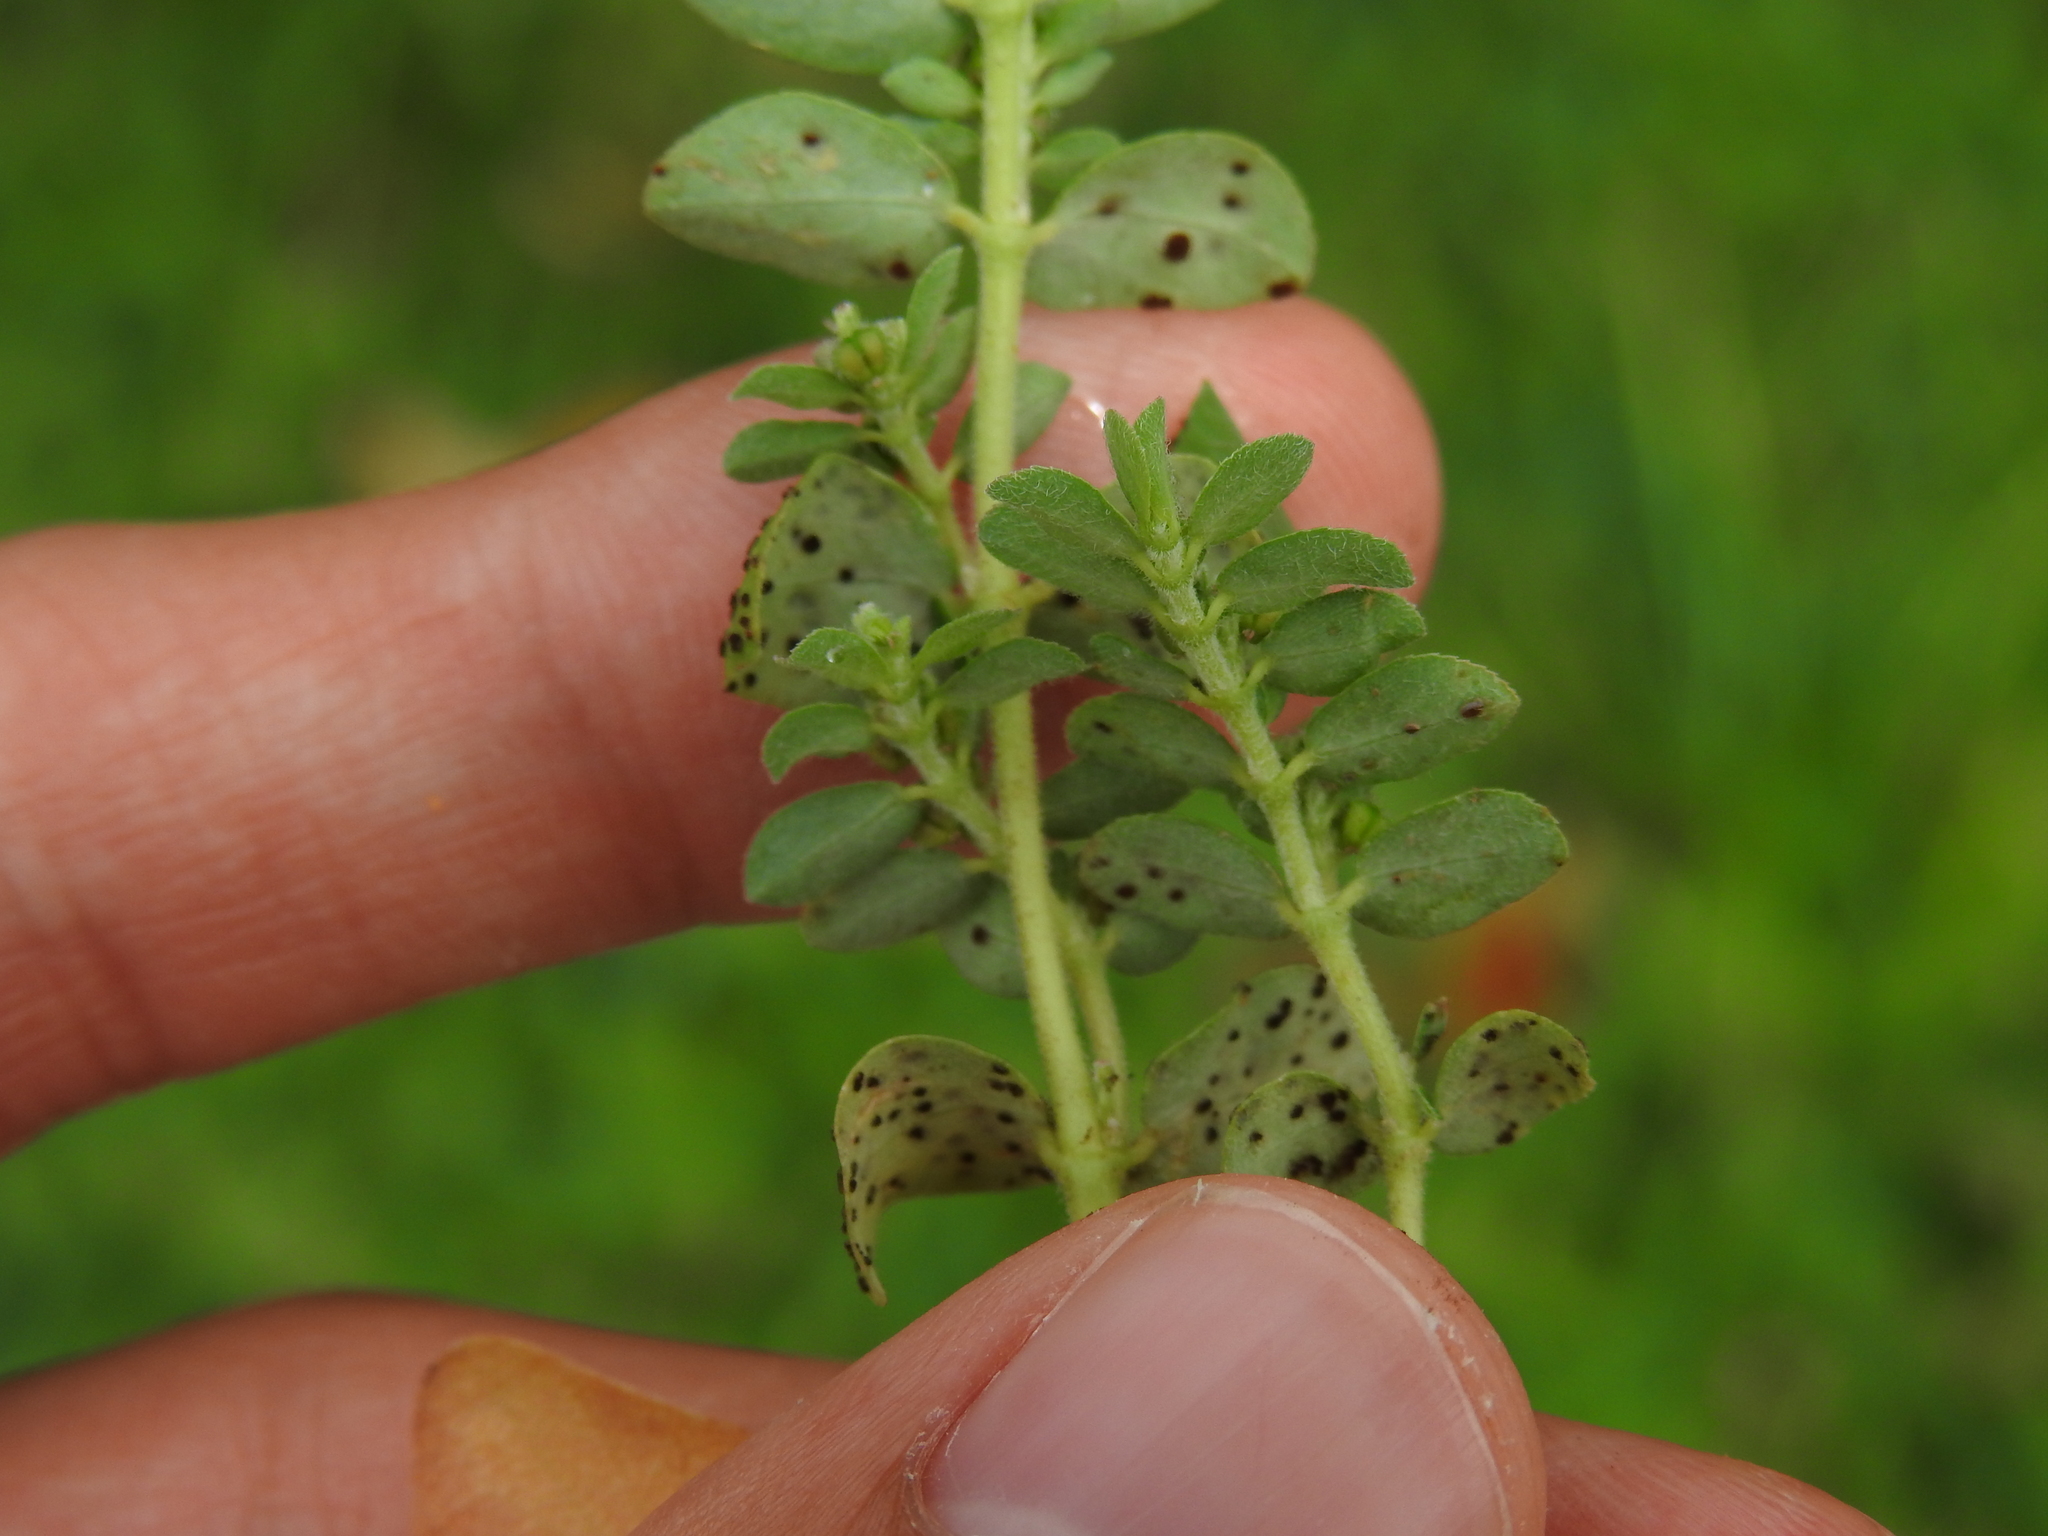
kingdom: Fungi
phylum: Basidiomycota
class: Pucciniomycetes
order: Pucciniales
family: Pucciniaceae
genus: Uromyces
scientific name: Uromyces proeminens
